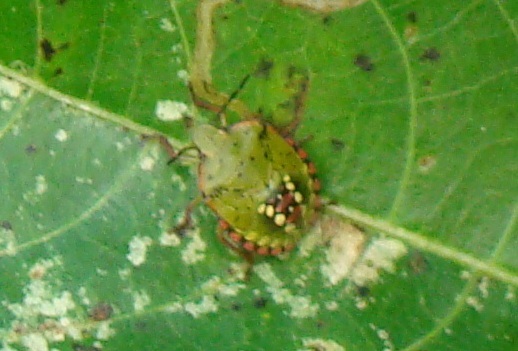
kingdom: Animalia
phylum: Arthropoda
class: Insecta
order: Hemiptera
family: Pentatomidae
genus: Nezara
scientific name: Nezara viridula
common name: Southern green stink bug
